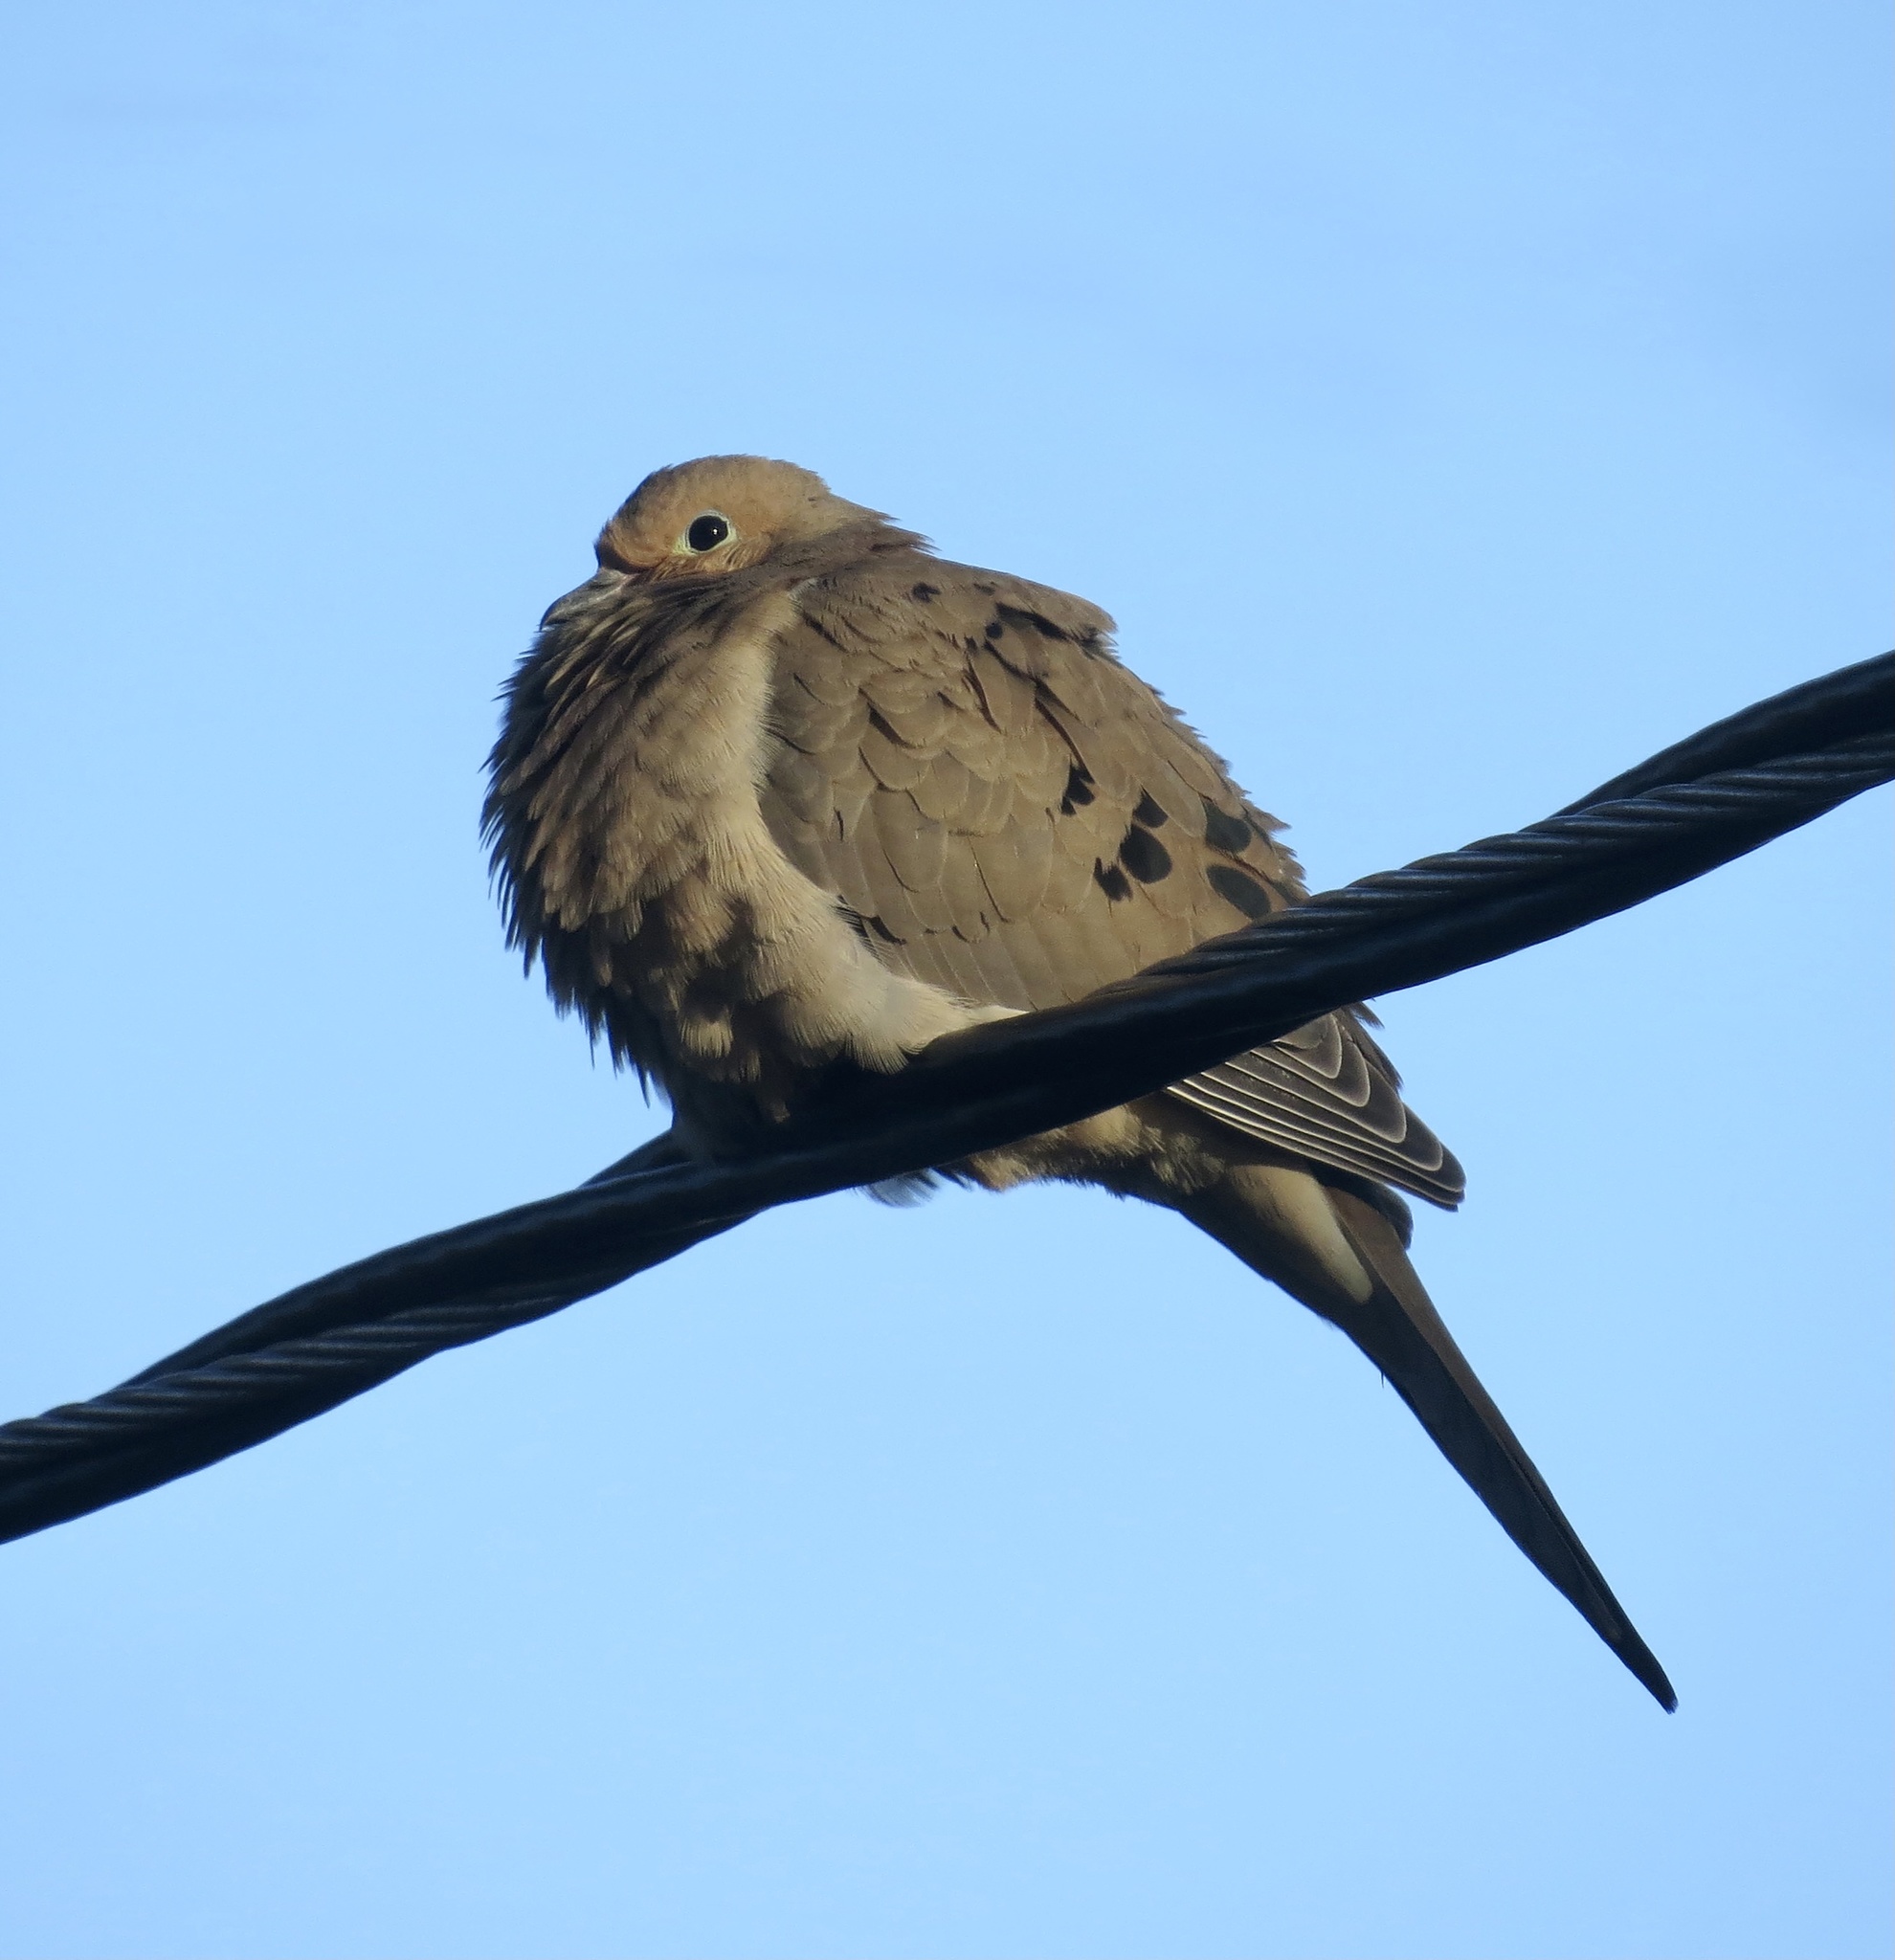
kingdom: Animalia
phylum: Chordata
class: Aves
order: Columbiformes
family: Columbidae
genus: Zenaida
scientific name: Zenaida macroura
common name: Mourning dove
